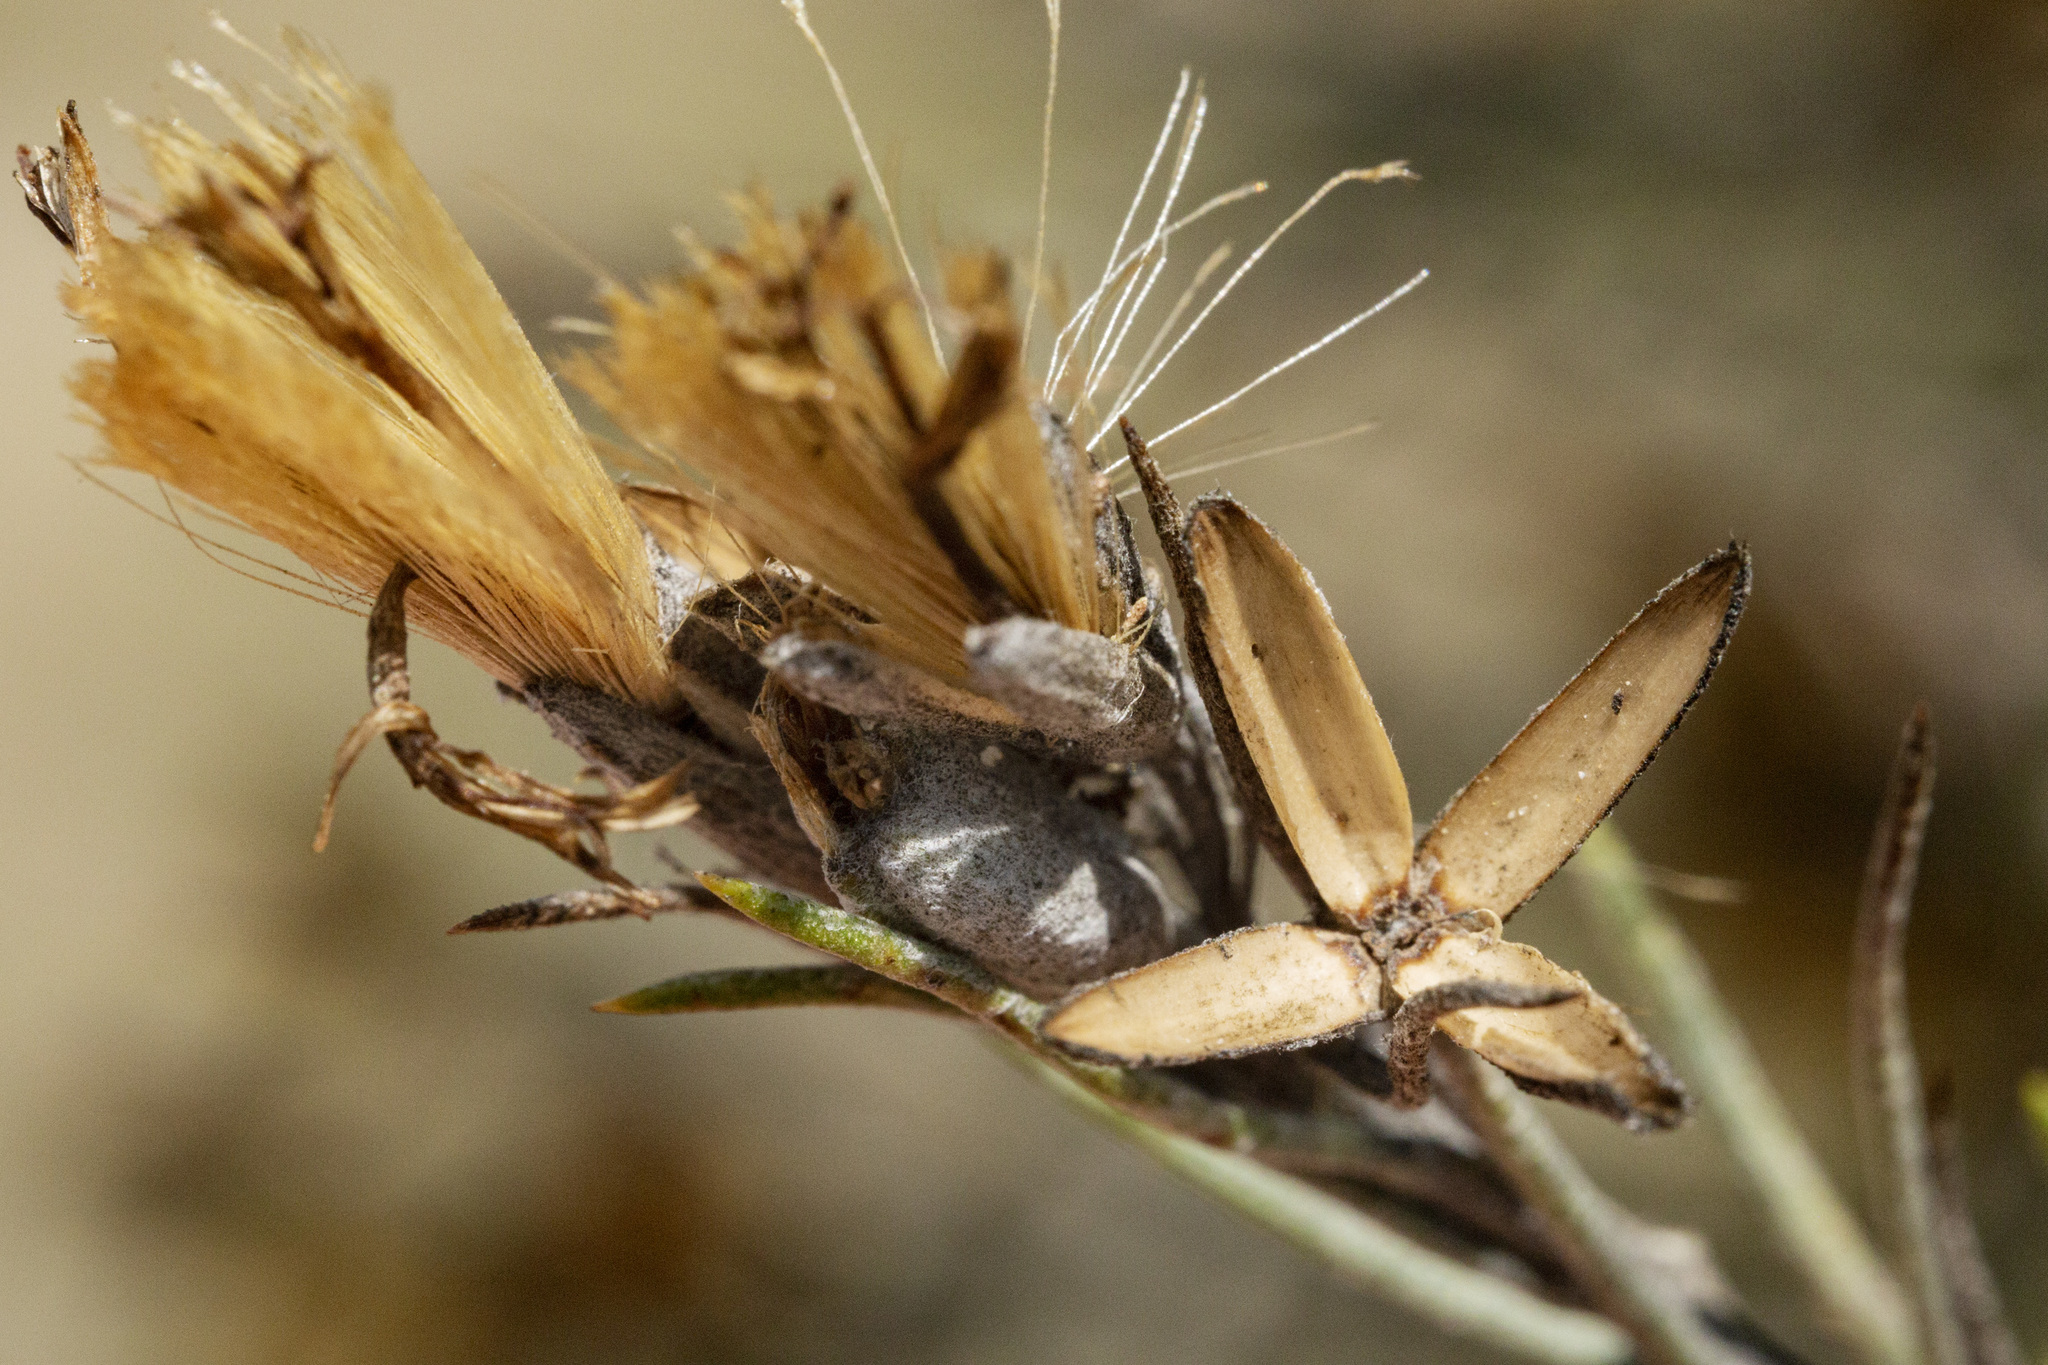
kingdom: Plantae
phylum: Tracheophyta
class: Magnoliopsida
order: Asterales
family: Asteraceae
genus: Tetradymia
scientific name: Tetradymia filifolia
